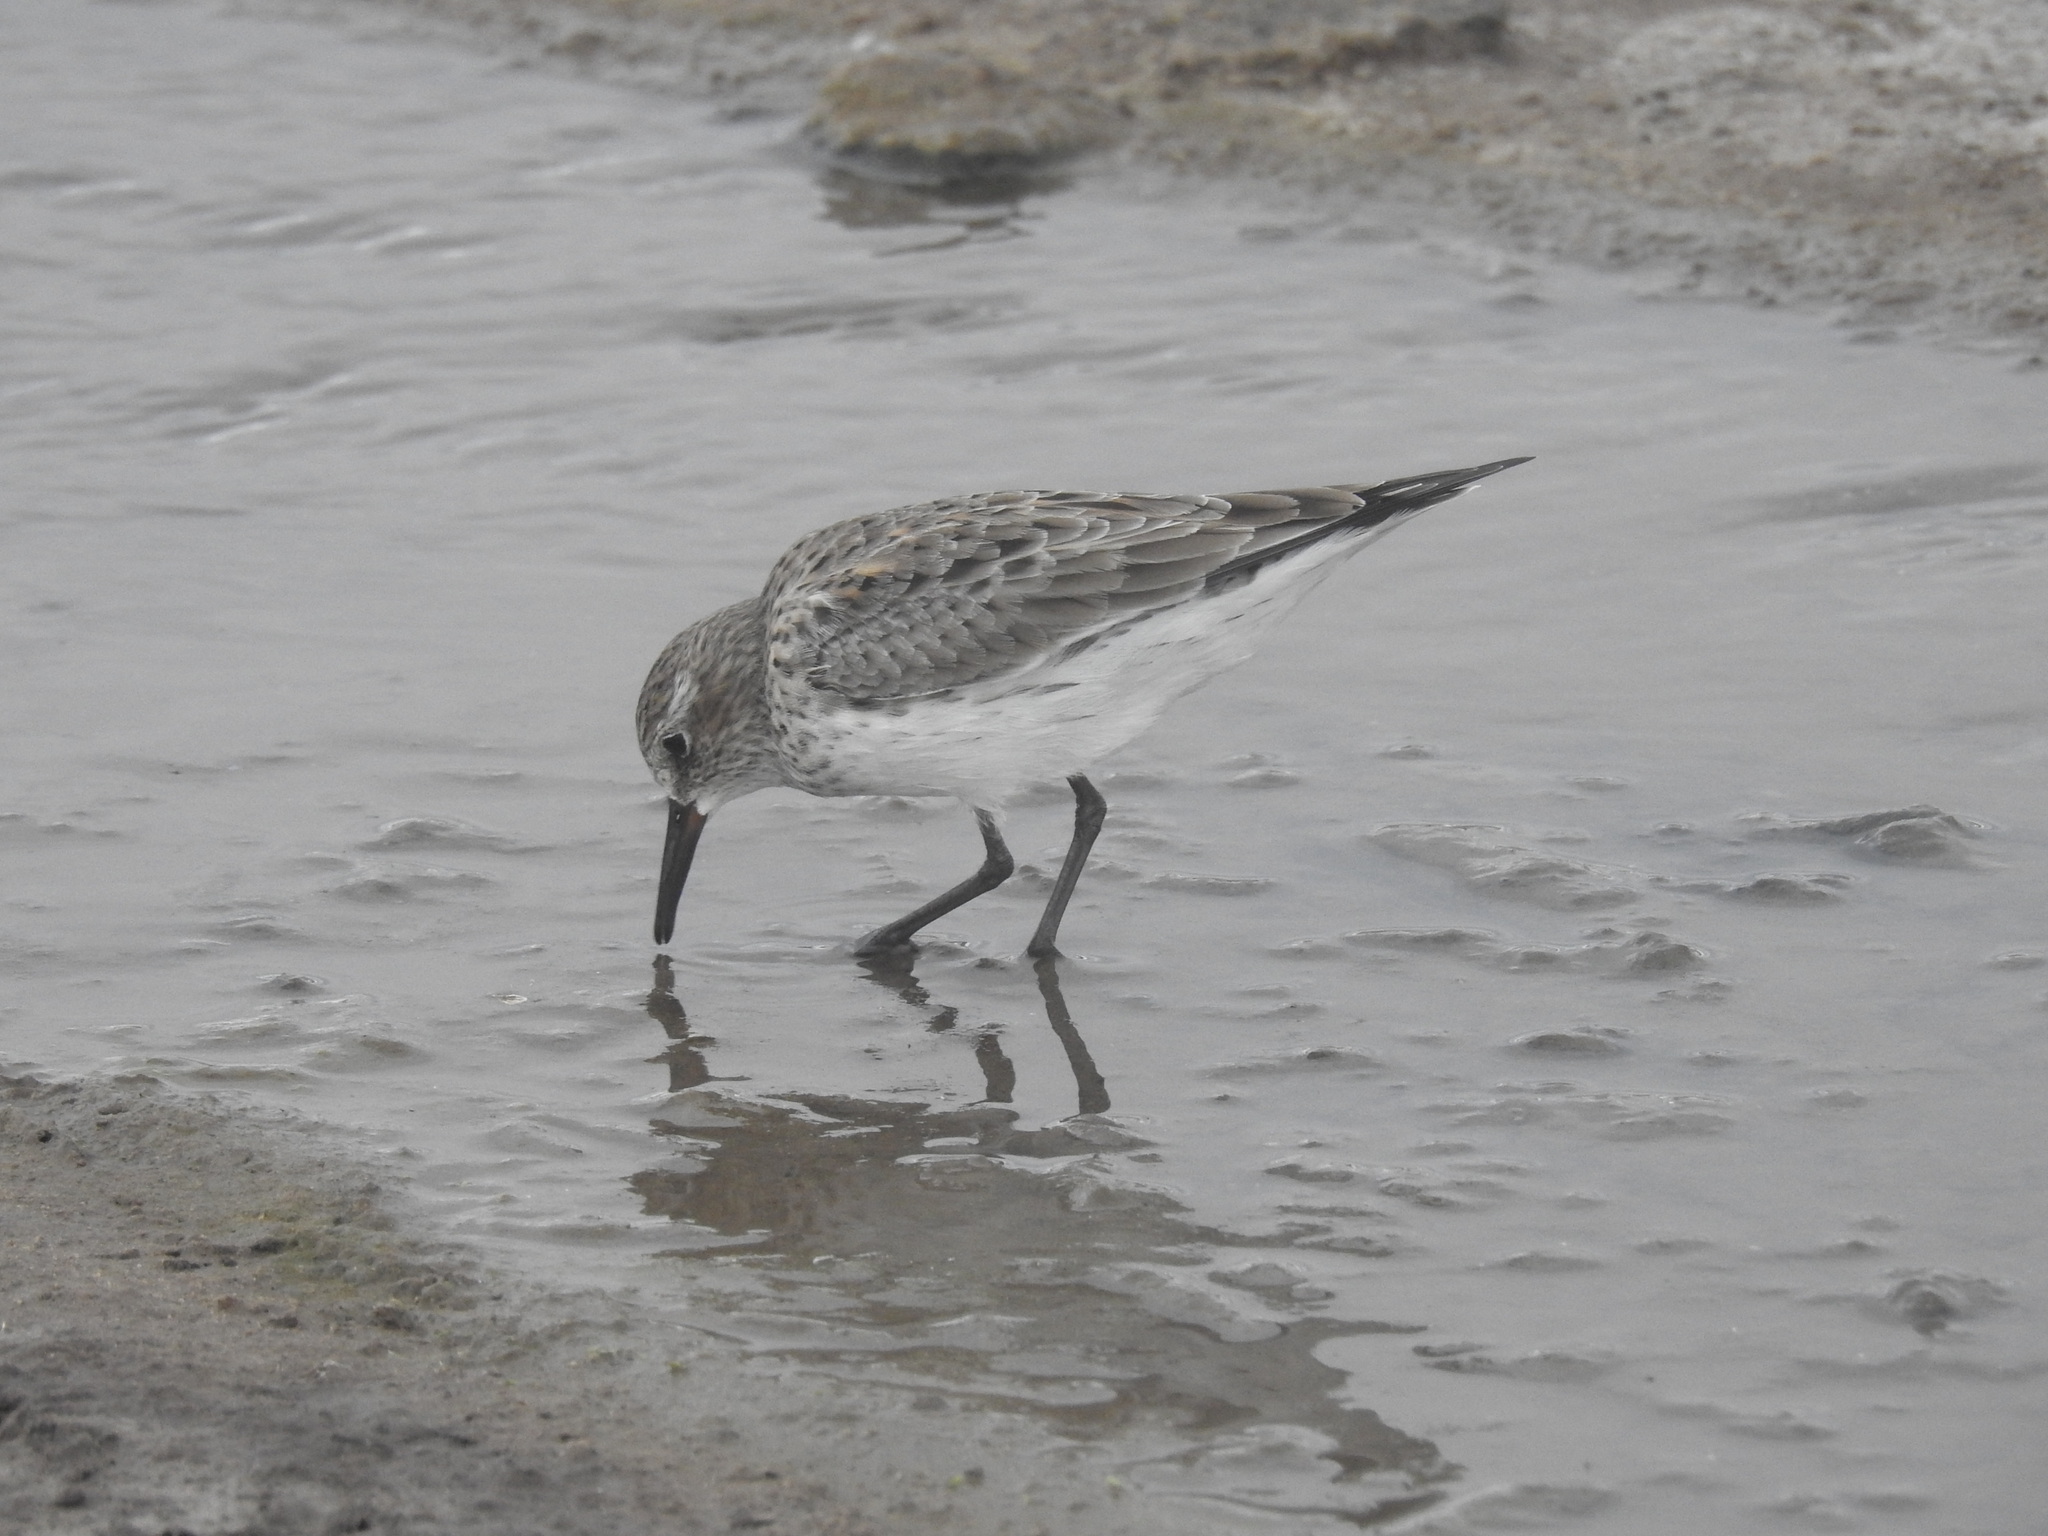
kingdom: Animalia
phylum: Chordata
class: Aves
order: Charadriiformes
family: Scolopacidae
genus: Calidris
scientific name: Calidris fuscicollis
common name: White-rumped sandpiper
